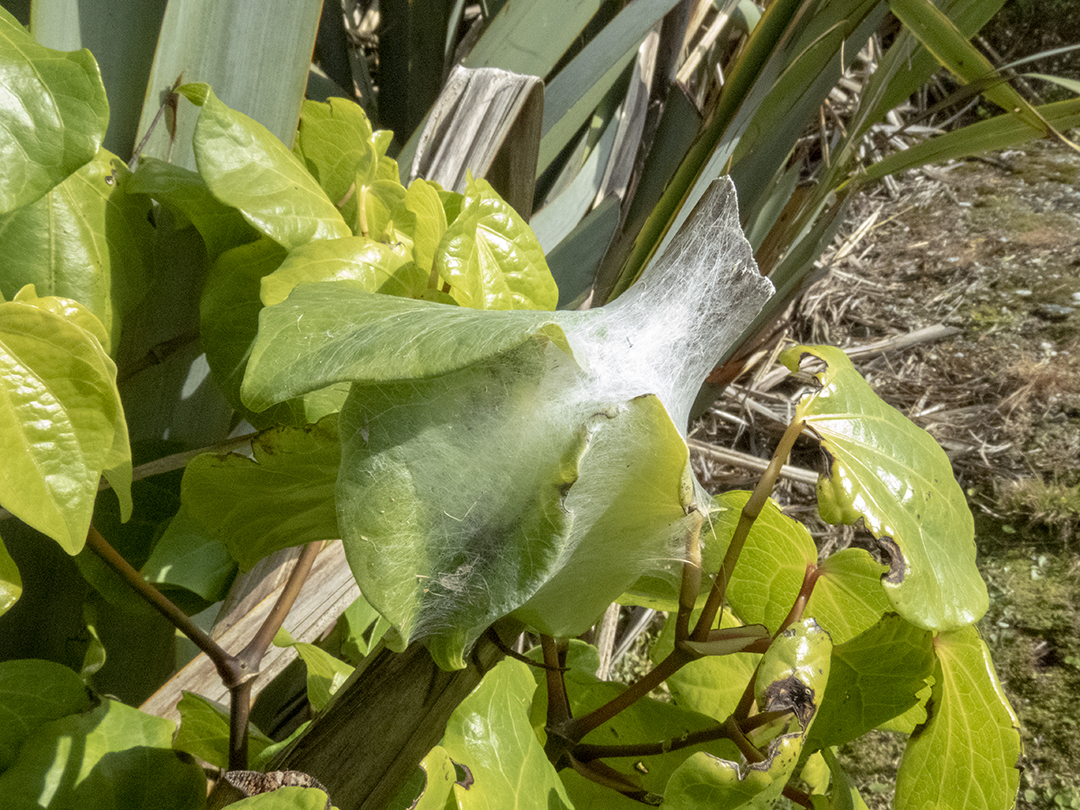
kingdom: Animalia
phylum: Arthropoda
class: Arachnida
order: Araneae
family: Pisauridae
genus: Dolomedes
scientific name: Dolomedes minor
